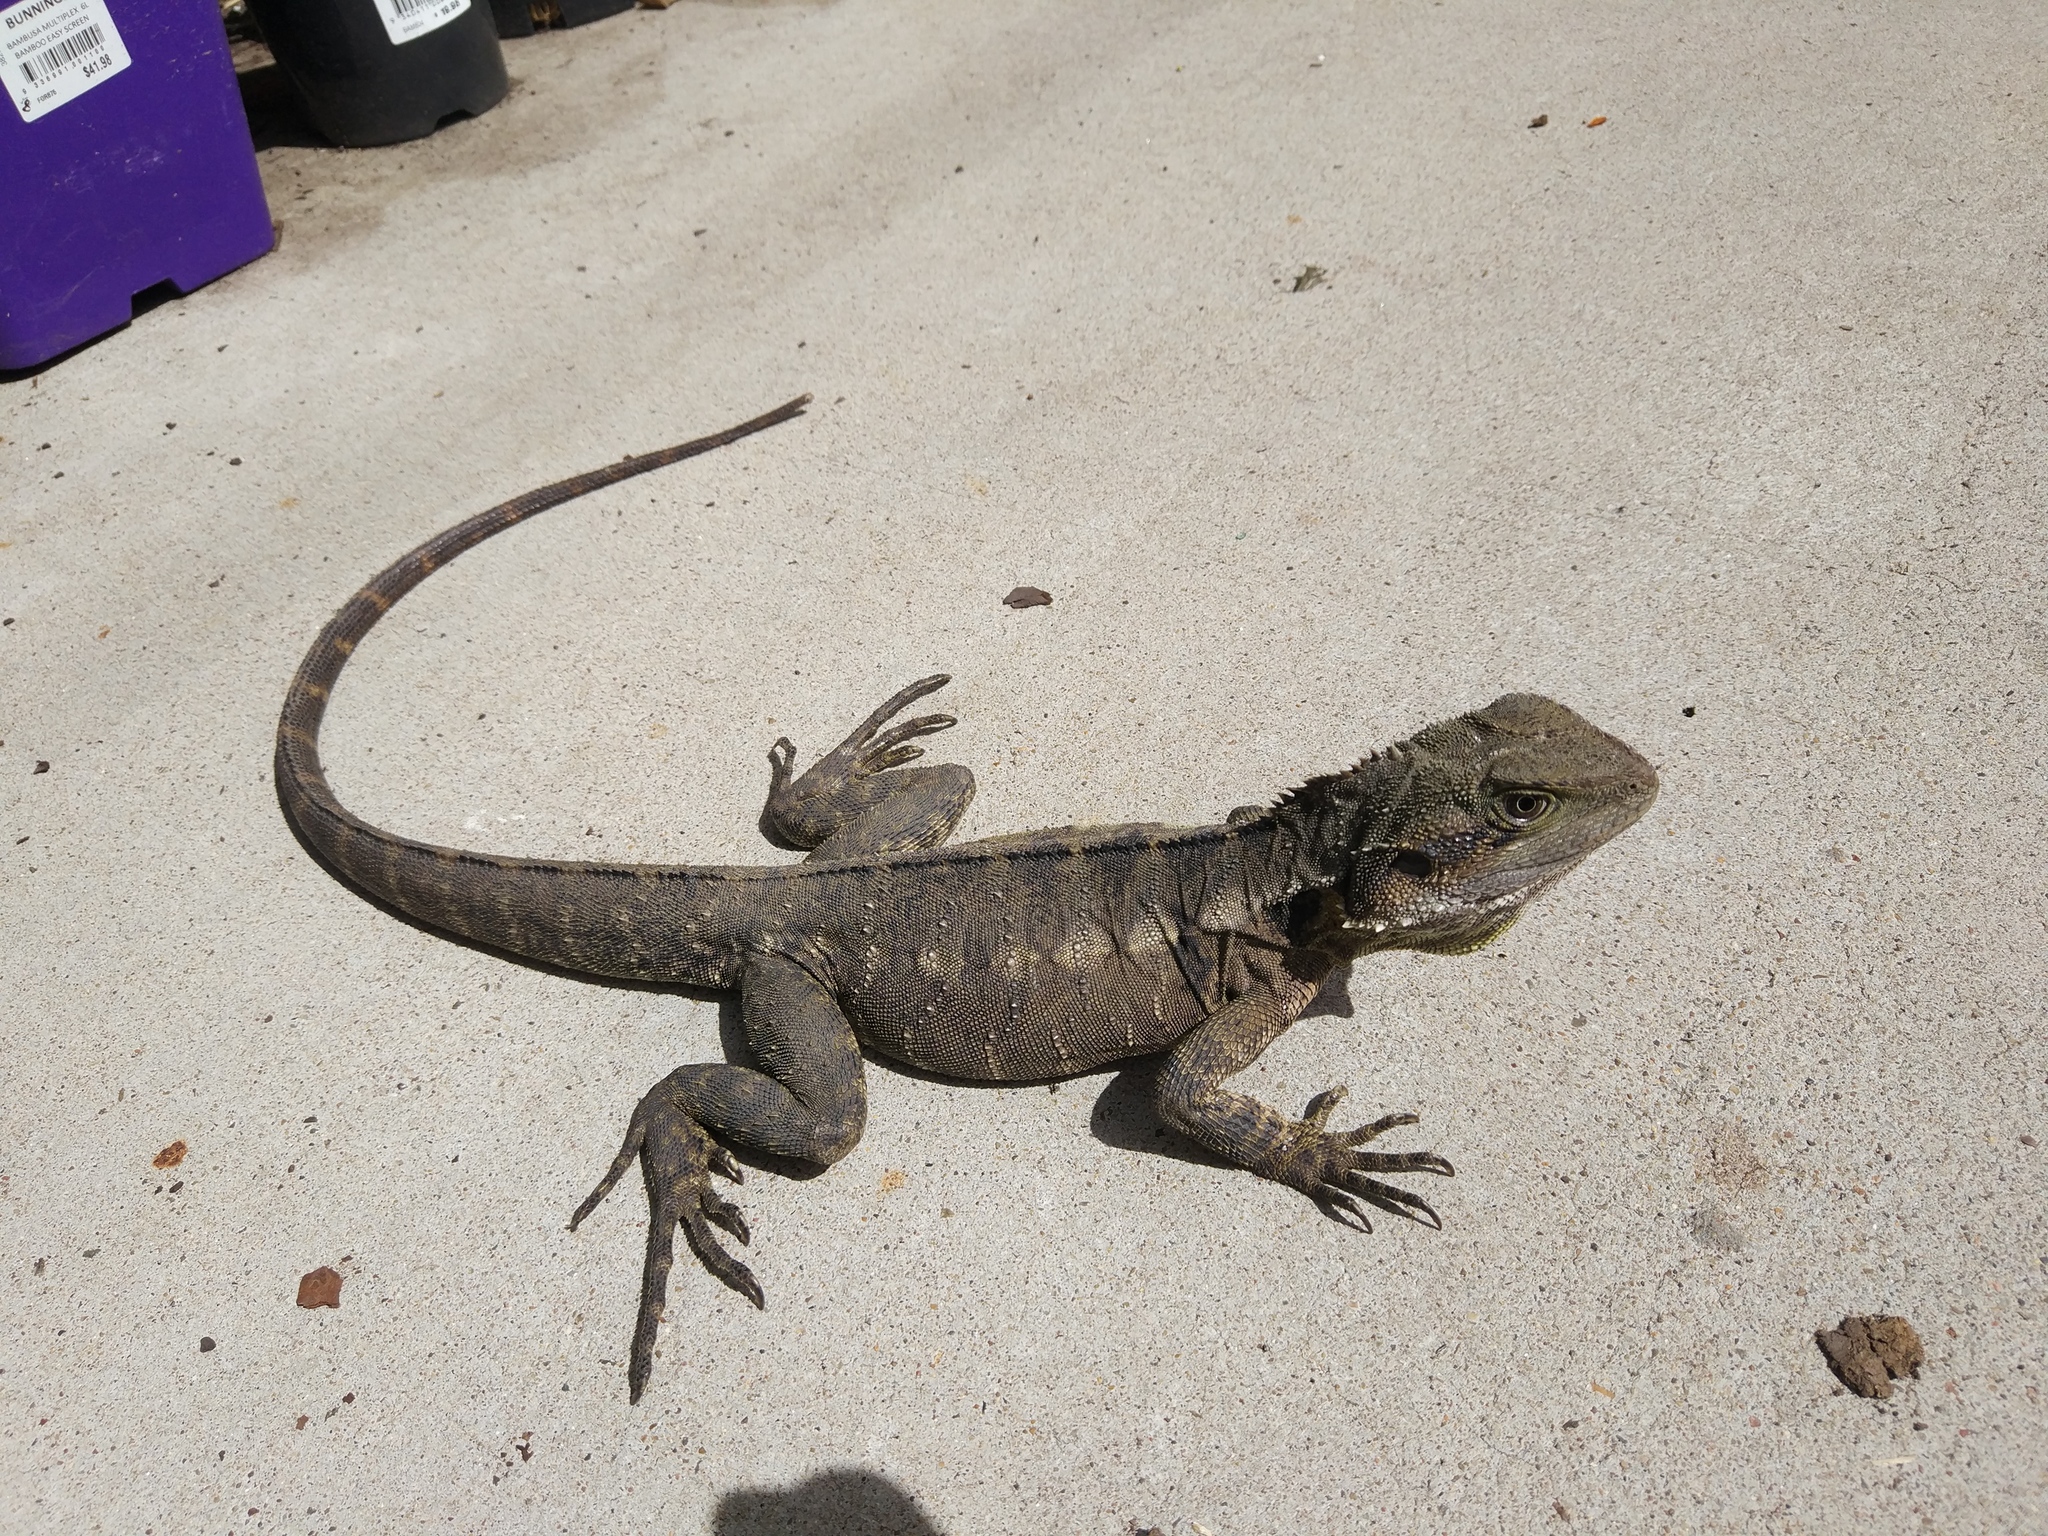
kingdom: Animalia
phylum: Chordata
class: Squamata
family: Agamidae
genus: Intellagama
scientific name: Intellagama lesueurii
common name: Eastern water dragon
